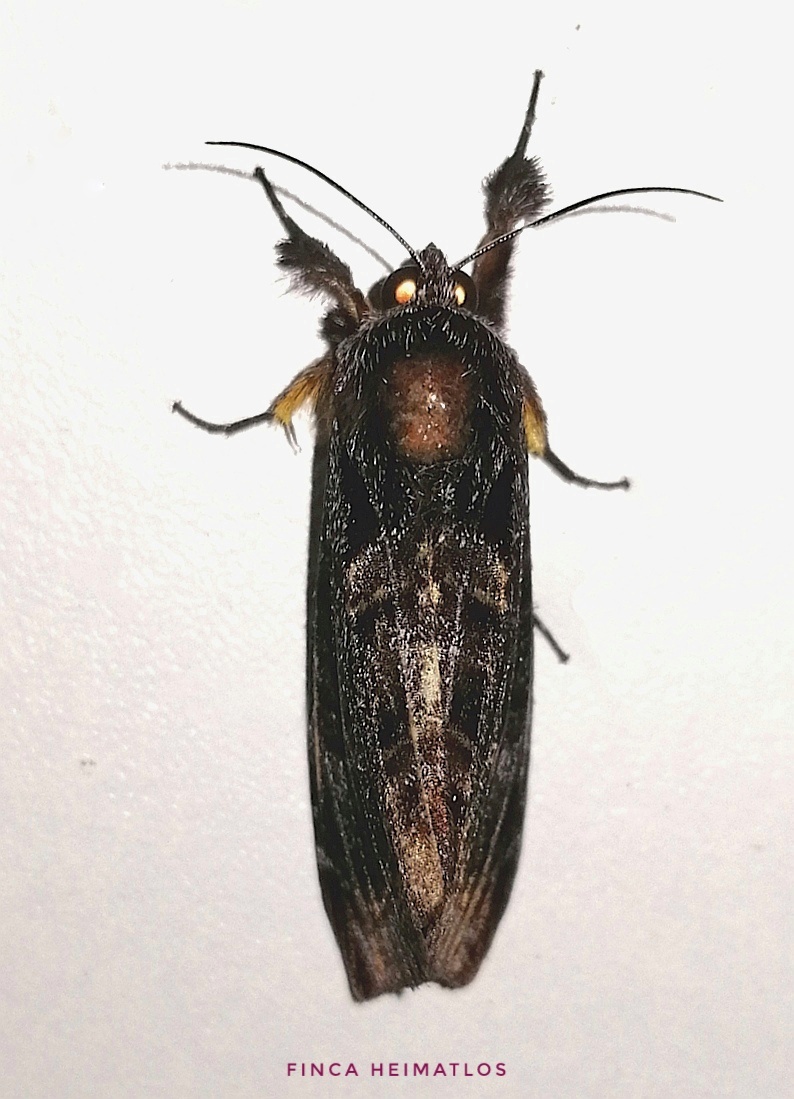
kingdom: Animalia
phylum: Arthropoda
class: Insecta
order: Lepidoptera
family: Noctuidae
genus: Darceta
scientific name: Darceta haenschi
